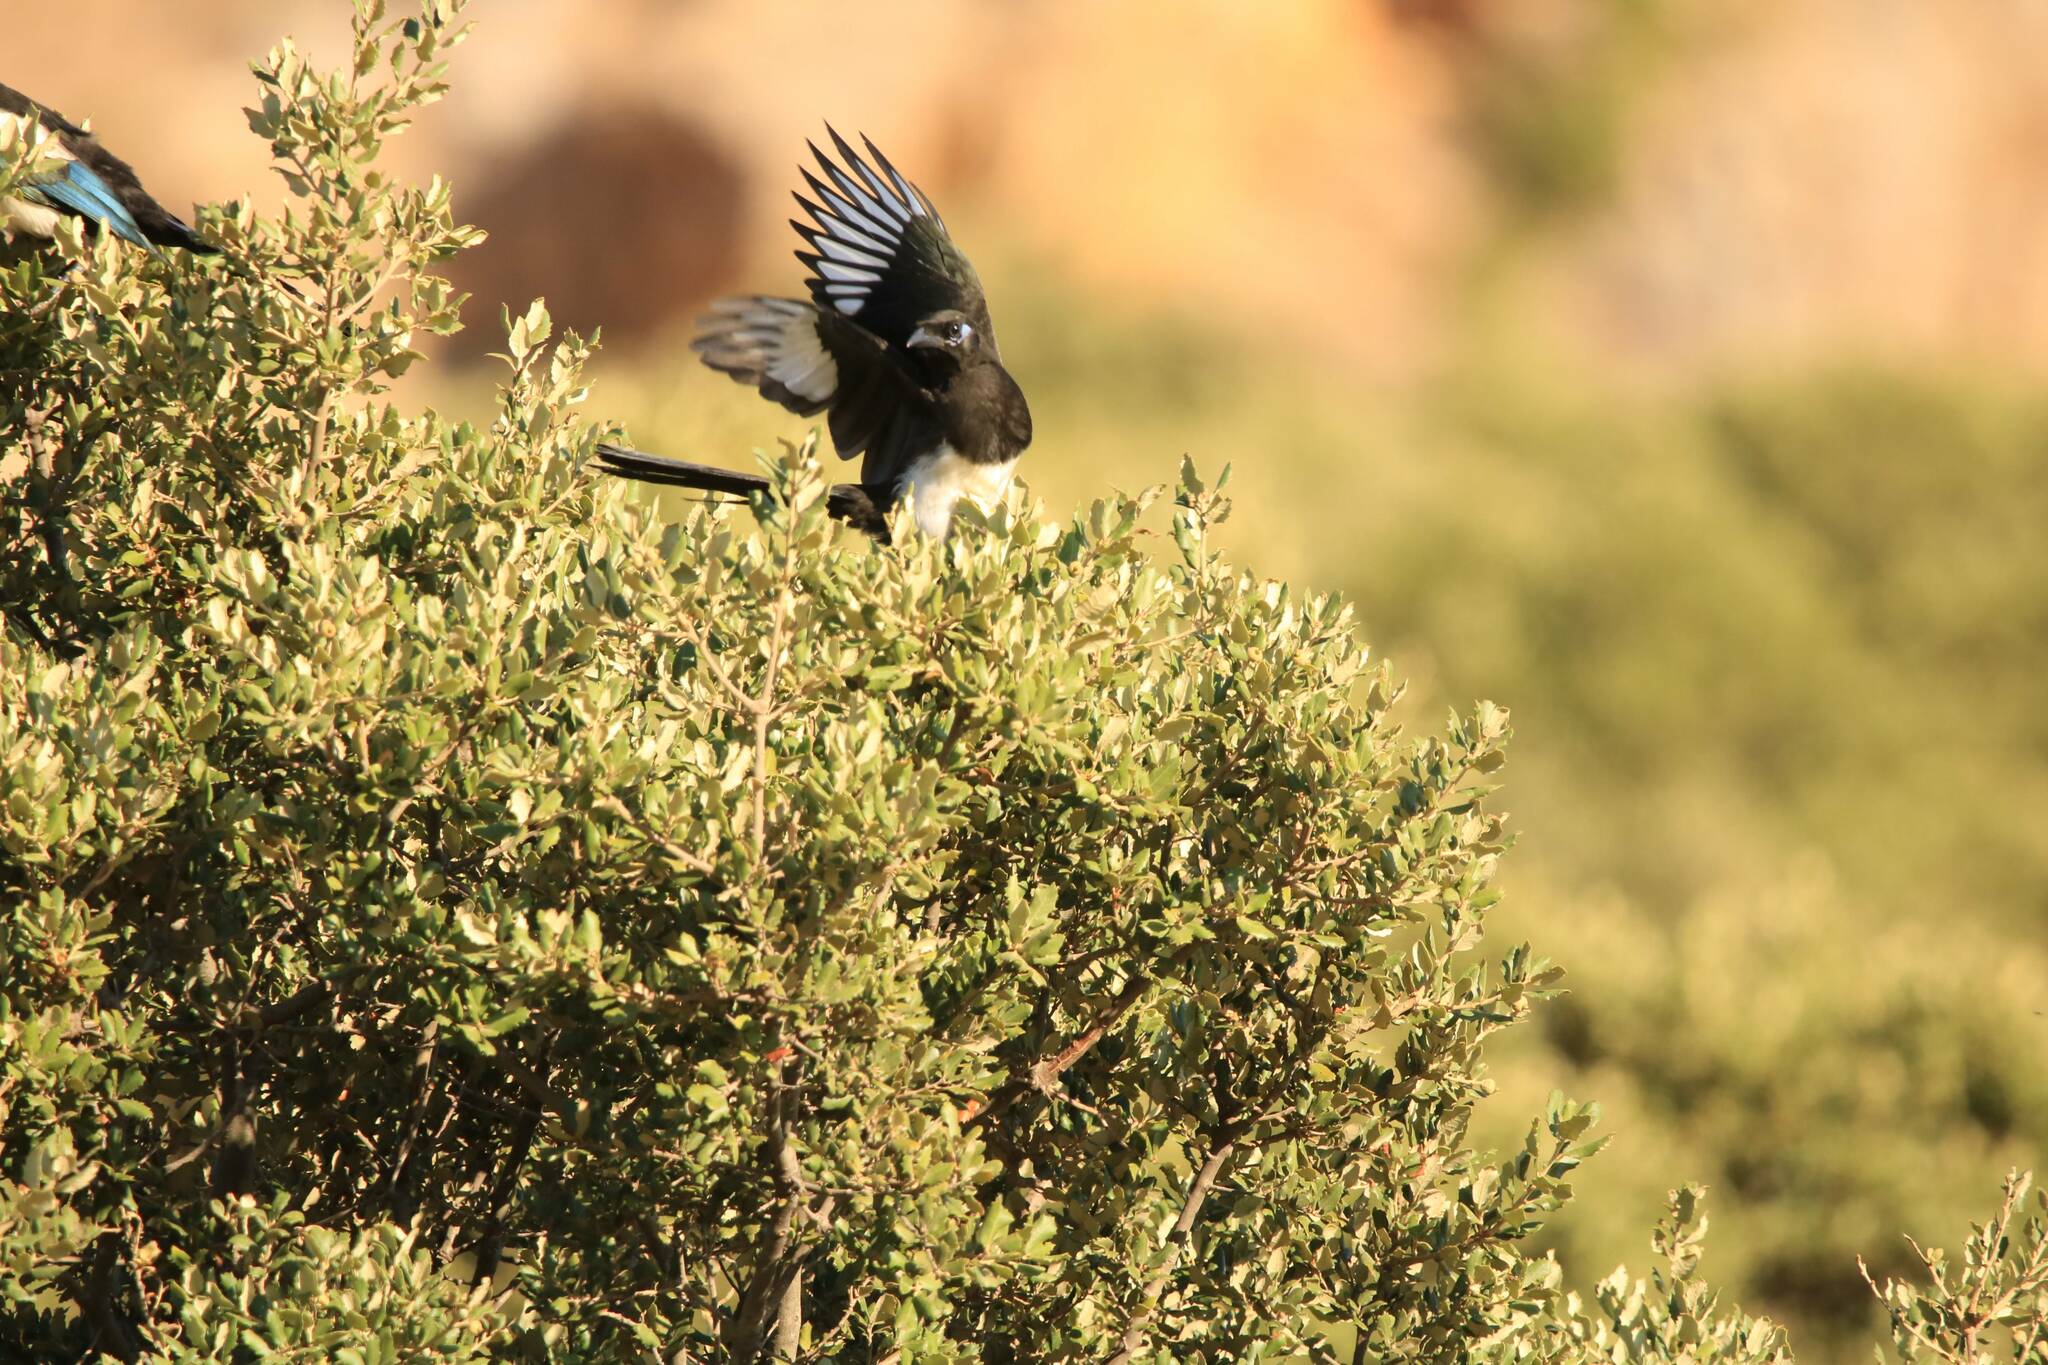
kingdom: Animalia
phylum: Chordata
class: Aves
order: Passeriformes
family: Corvidae
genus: Pica
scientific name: Pica mauritanica
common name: Maghreb magpie
